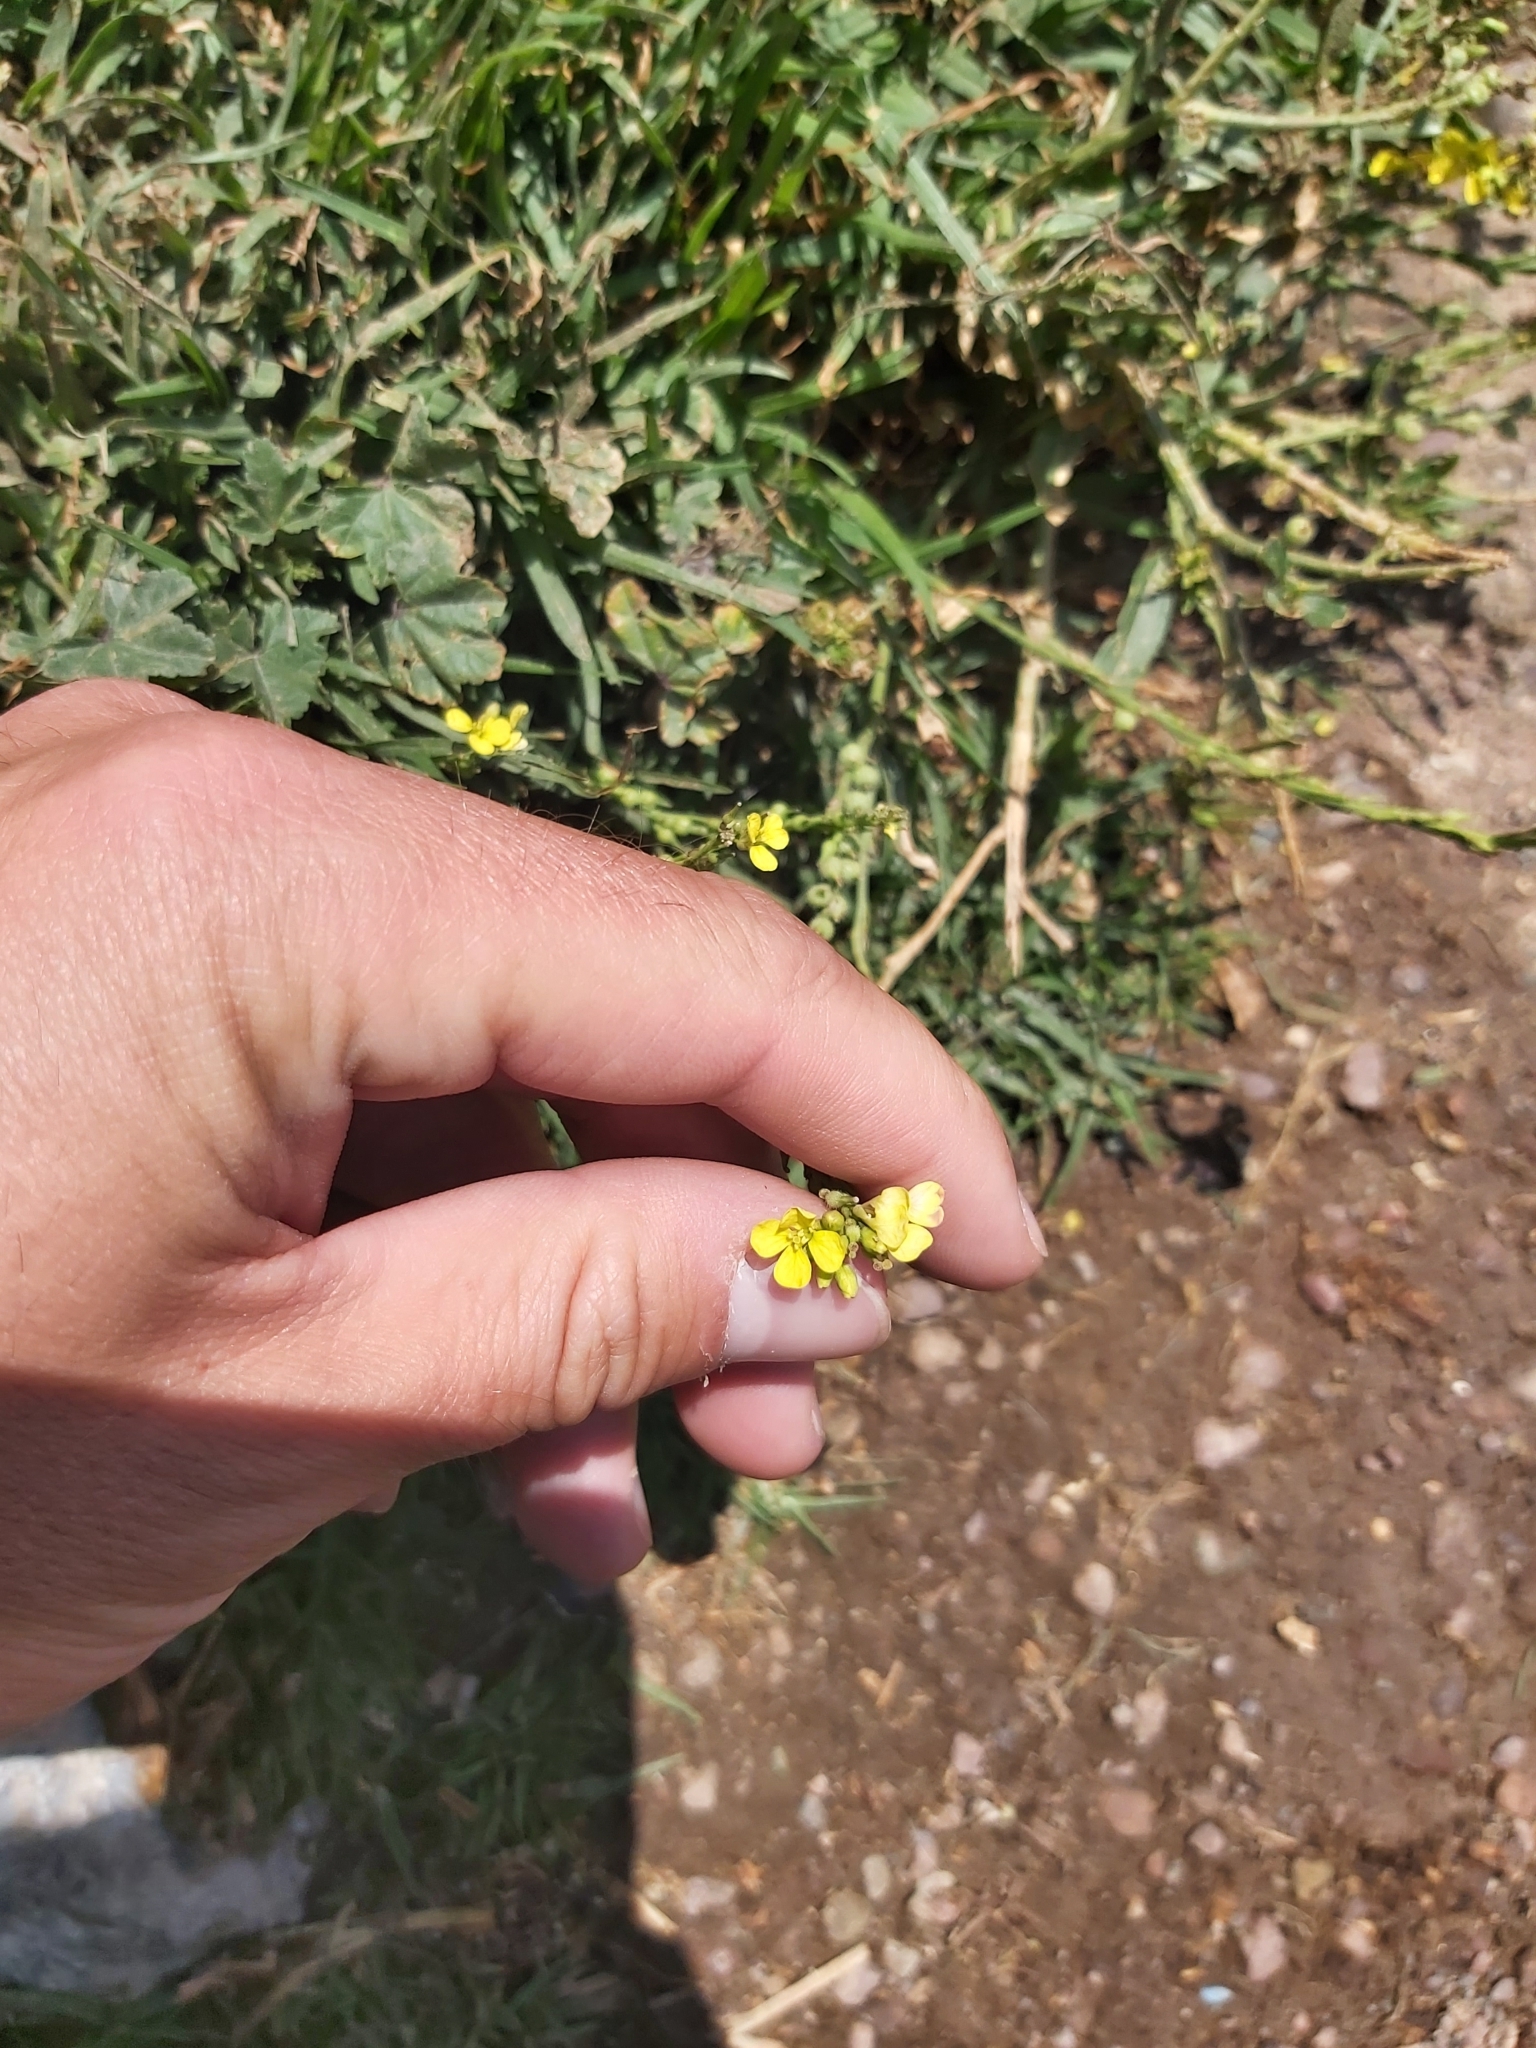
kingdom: Plantae
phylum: Tracheophyta
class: Magnoliopsida
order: Brassicales
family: Brassicaceae
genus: Rapistrum
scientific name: Rapistrum rugosum
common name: Annual bastardcabbage
